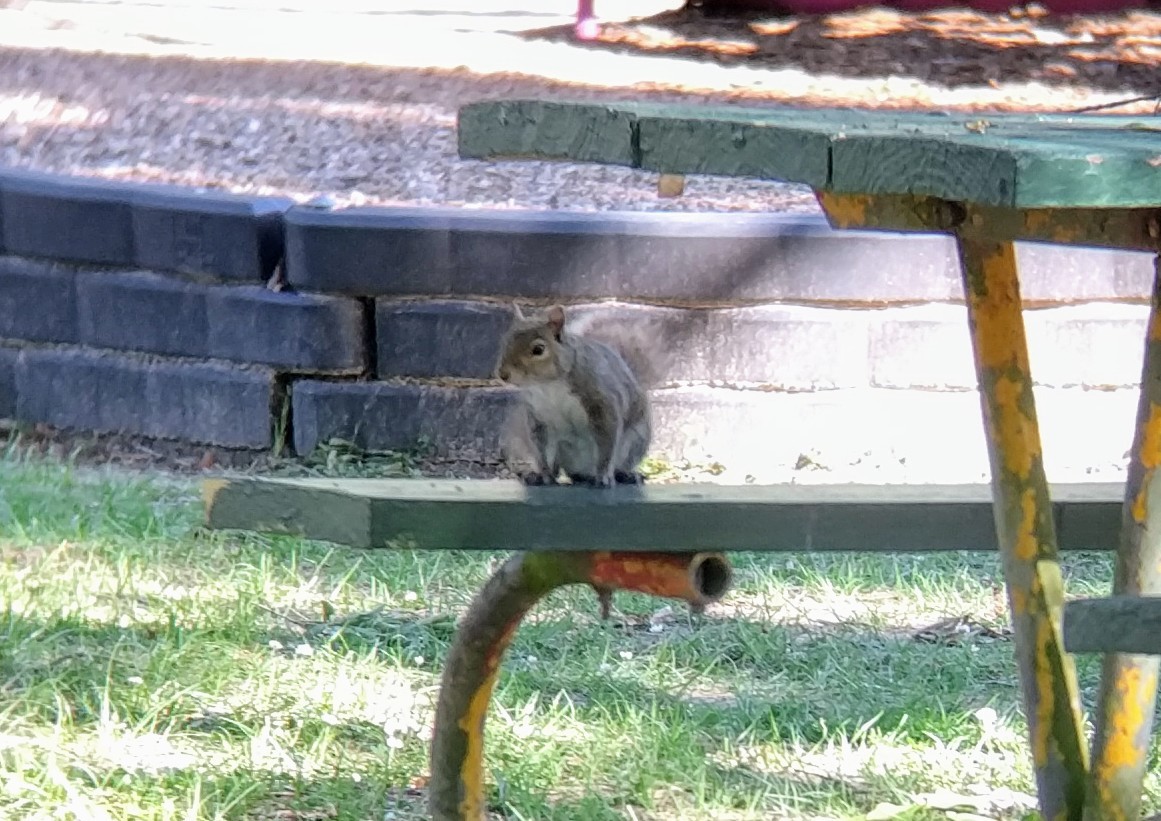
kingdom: Animalia
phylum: Chordata
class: Mammalia
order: Rodentia
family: Sciuridae
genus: Sciurus
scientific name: Sciurus carolinensis
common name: Eastern gray squirrel
